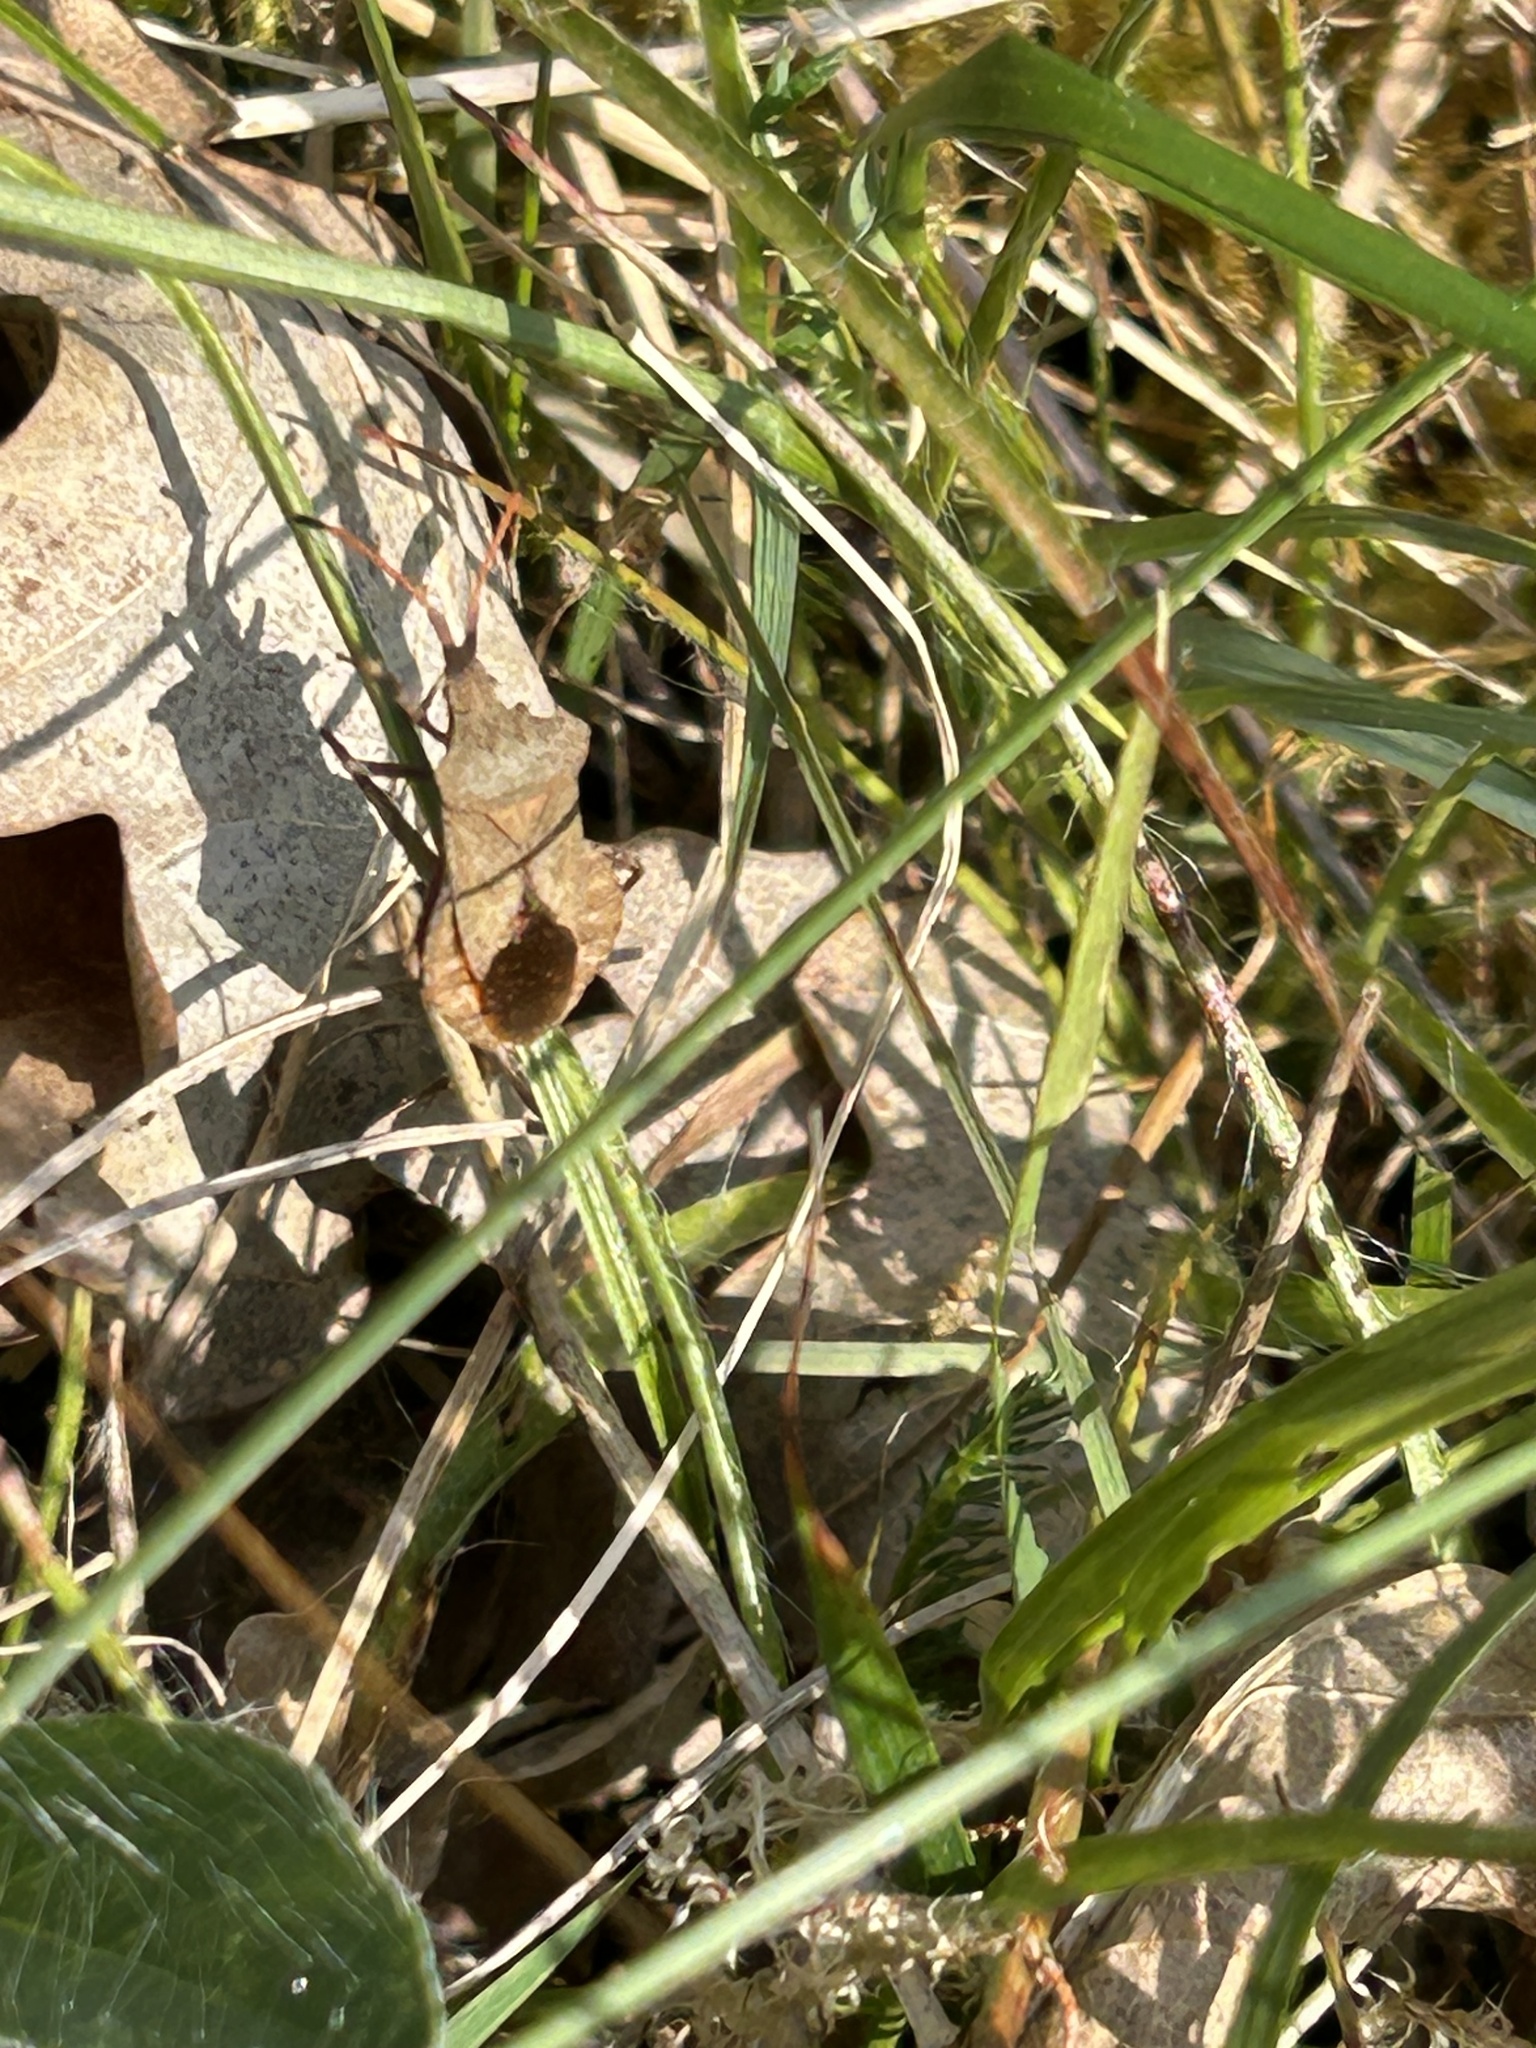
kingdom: Animalia
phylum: Arthropoda
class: Insecta
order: Hemiptera
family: Coreidae
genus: Coreus
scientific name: Coreus marginatus
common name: Dock bug
